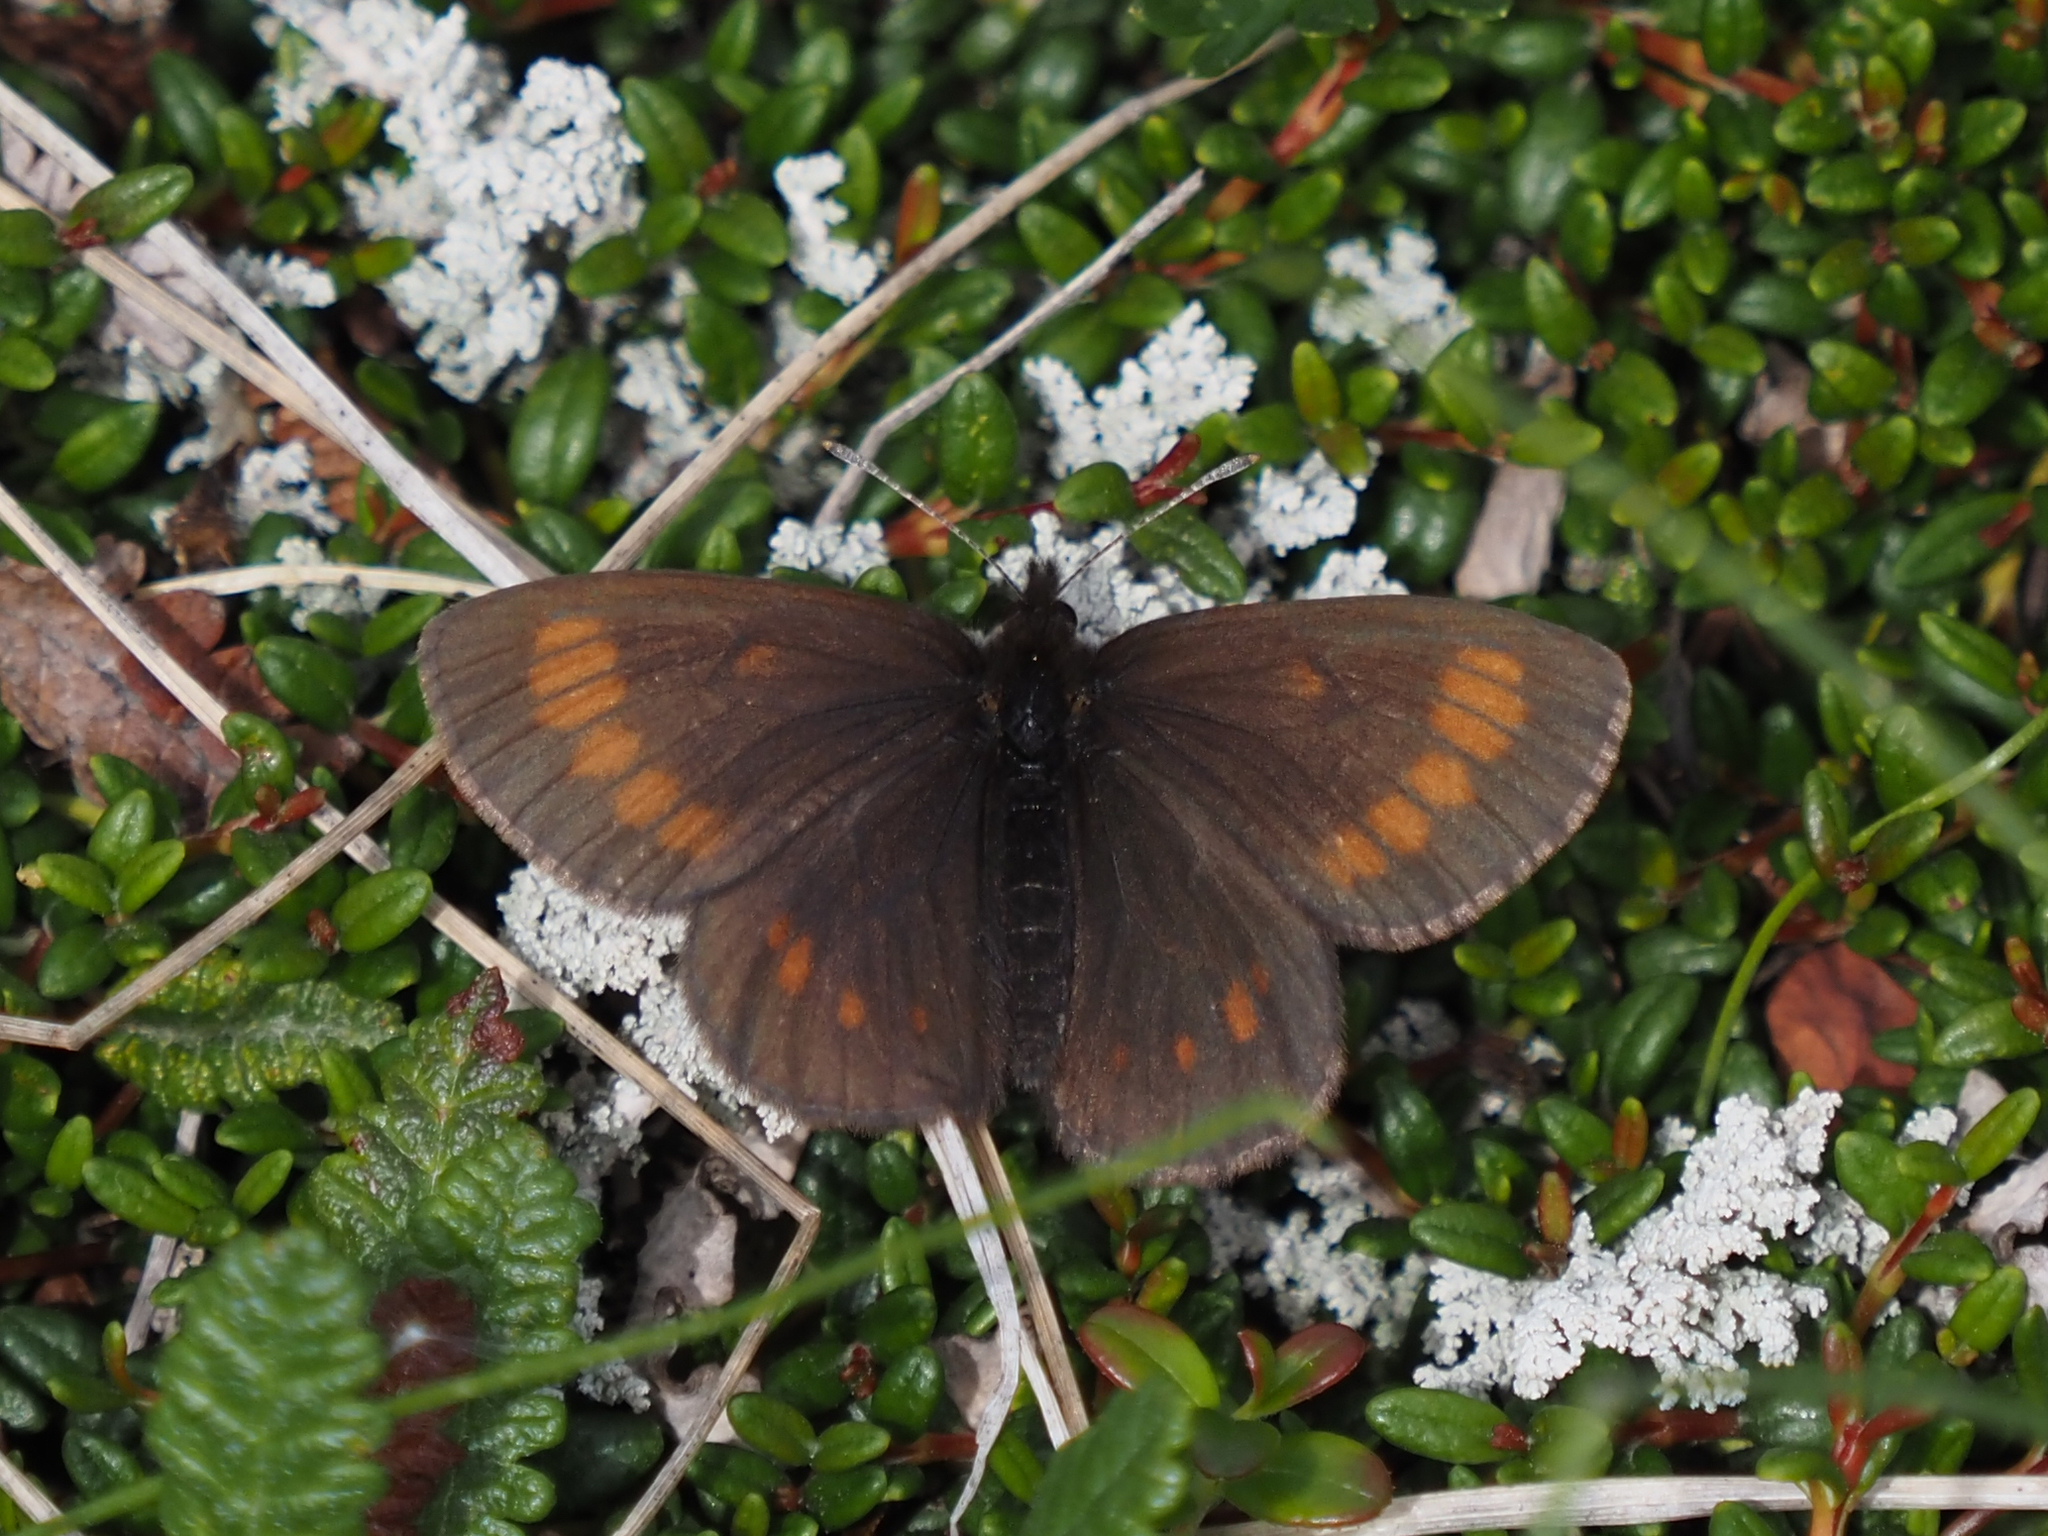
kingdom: Animalia
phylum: Arthropoda
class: Insecta
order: Lepidoptera
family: Nymphalidae
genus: Erebia
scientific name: Erebia pawloskii
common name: Theano alpine
